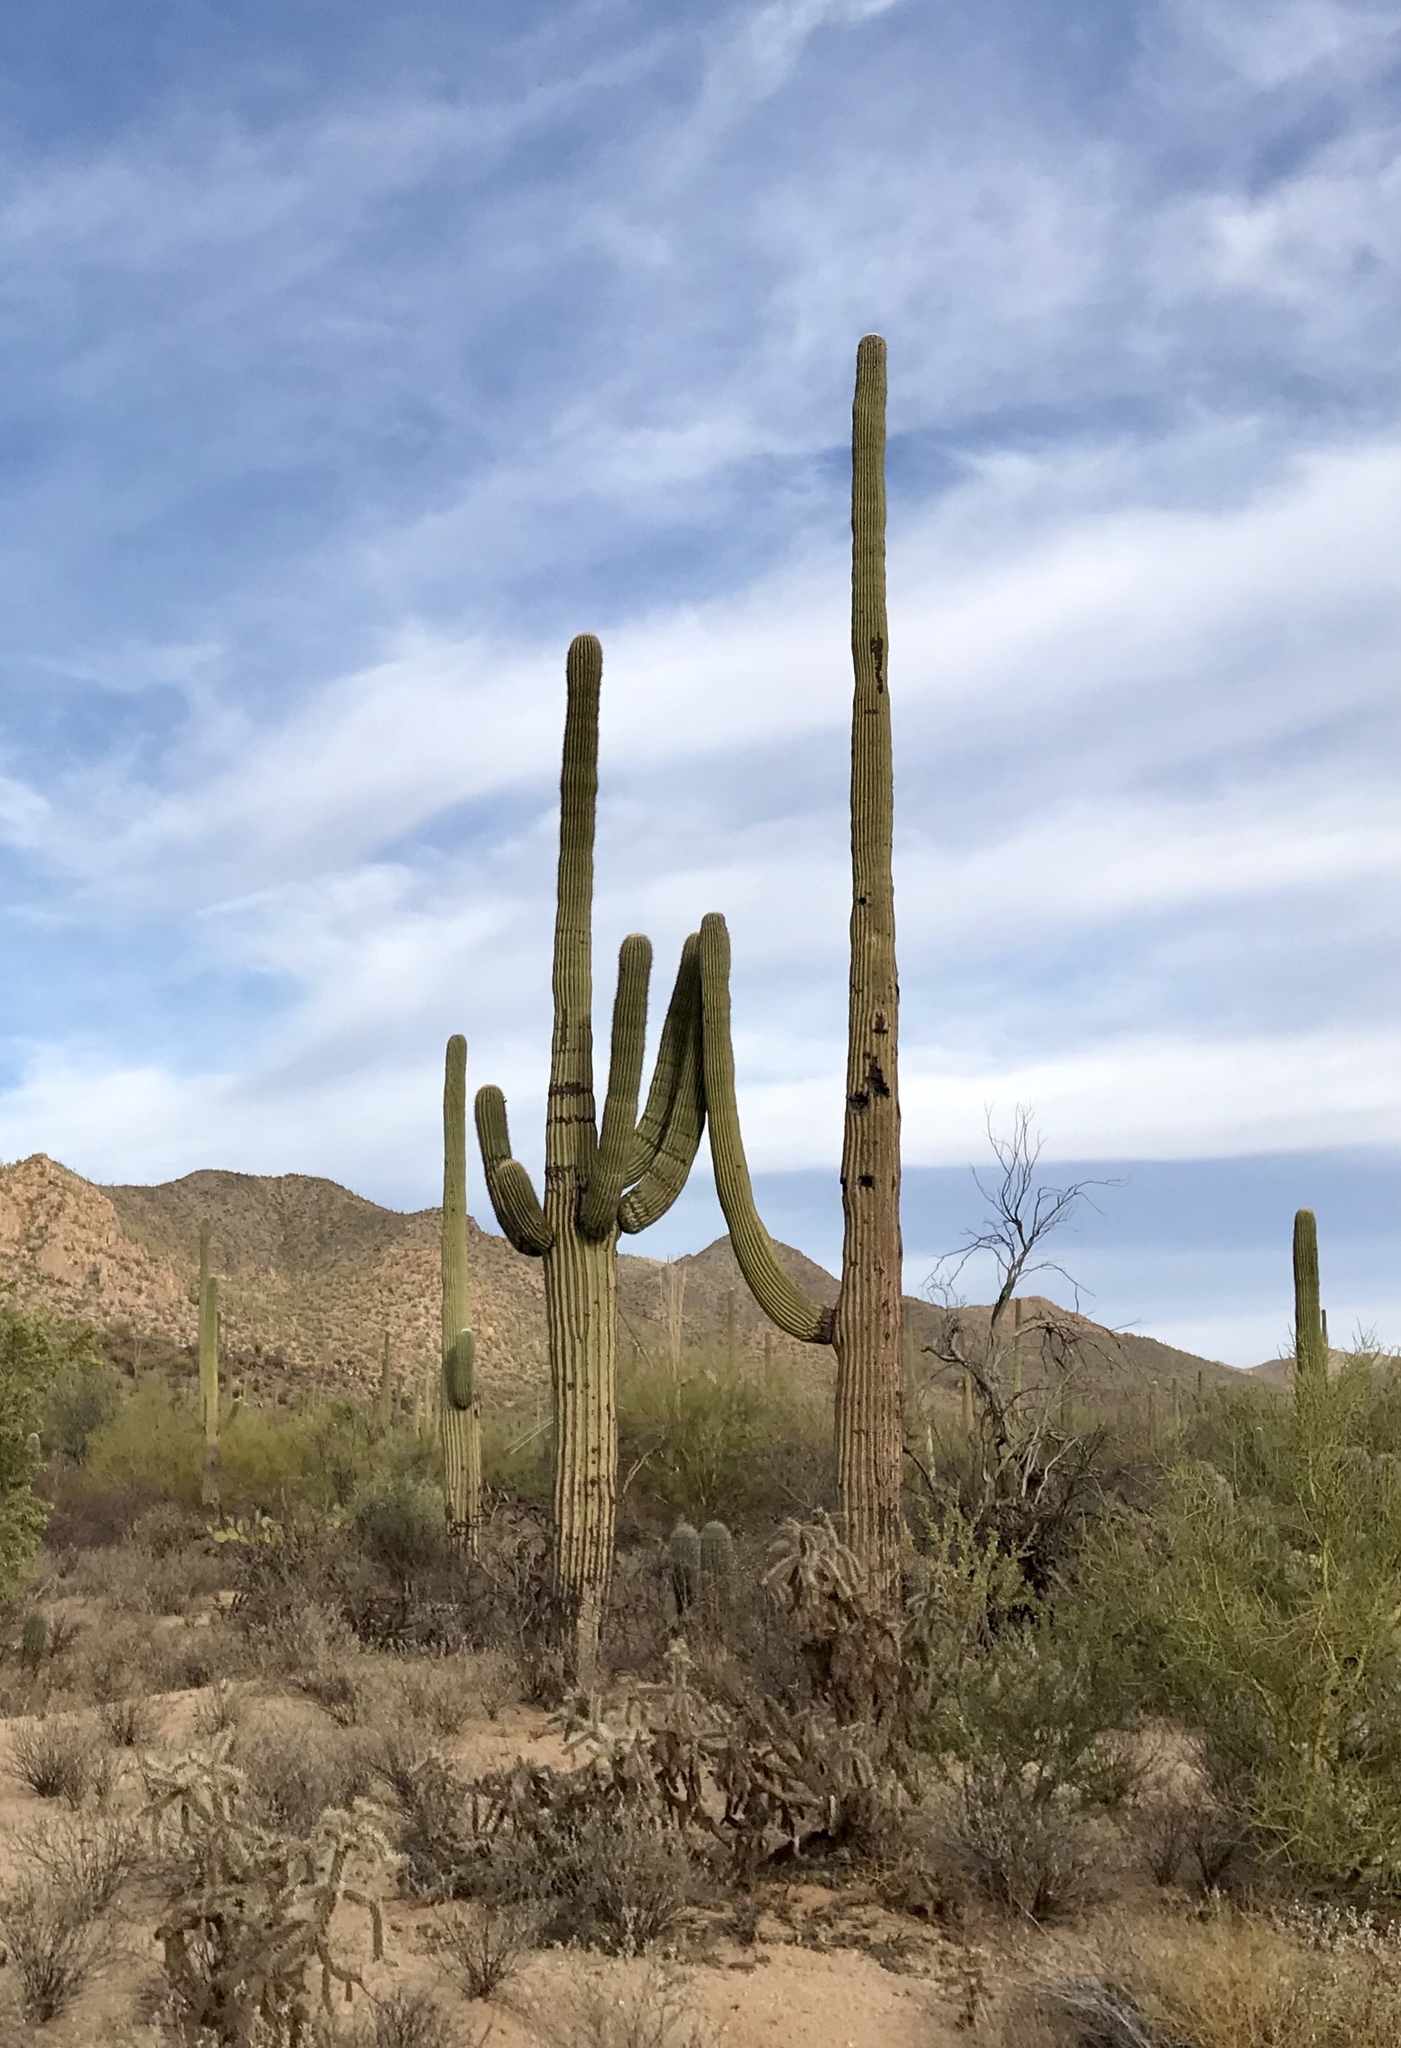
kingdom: Plantae
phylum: Tracheophyta
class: Magnoliopsida
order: Caryophyllales
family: Cactaceae
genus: Carnegiea
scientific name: Carnegiea gigantea
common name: Saguaro
